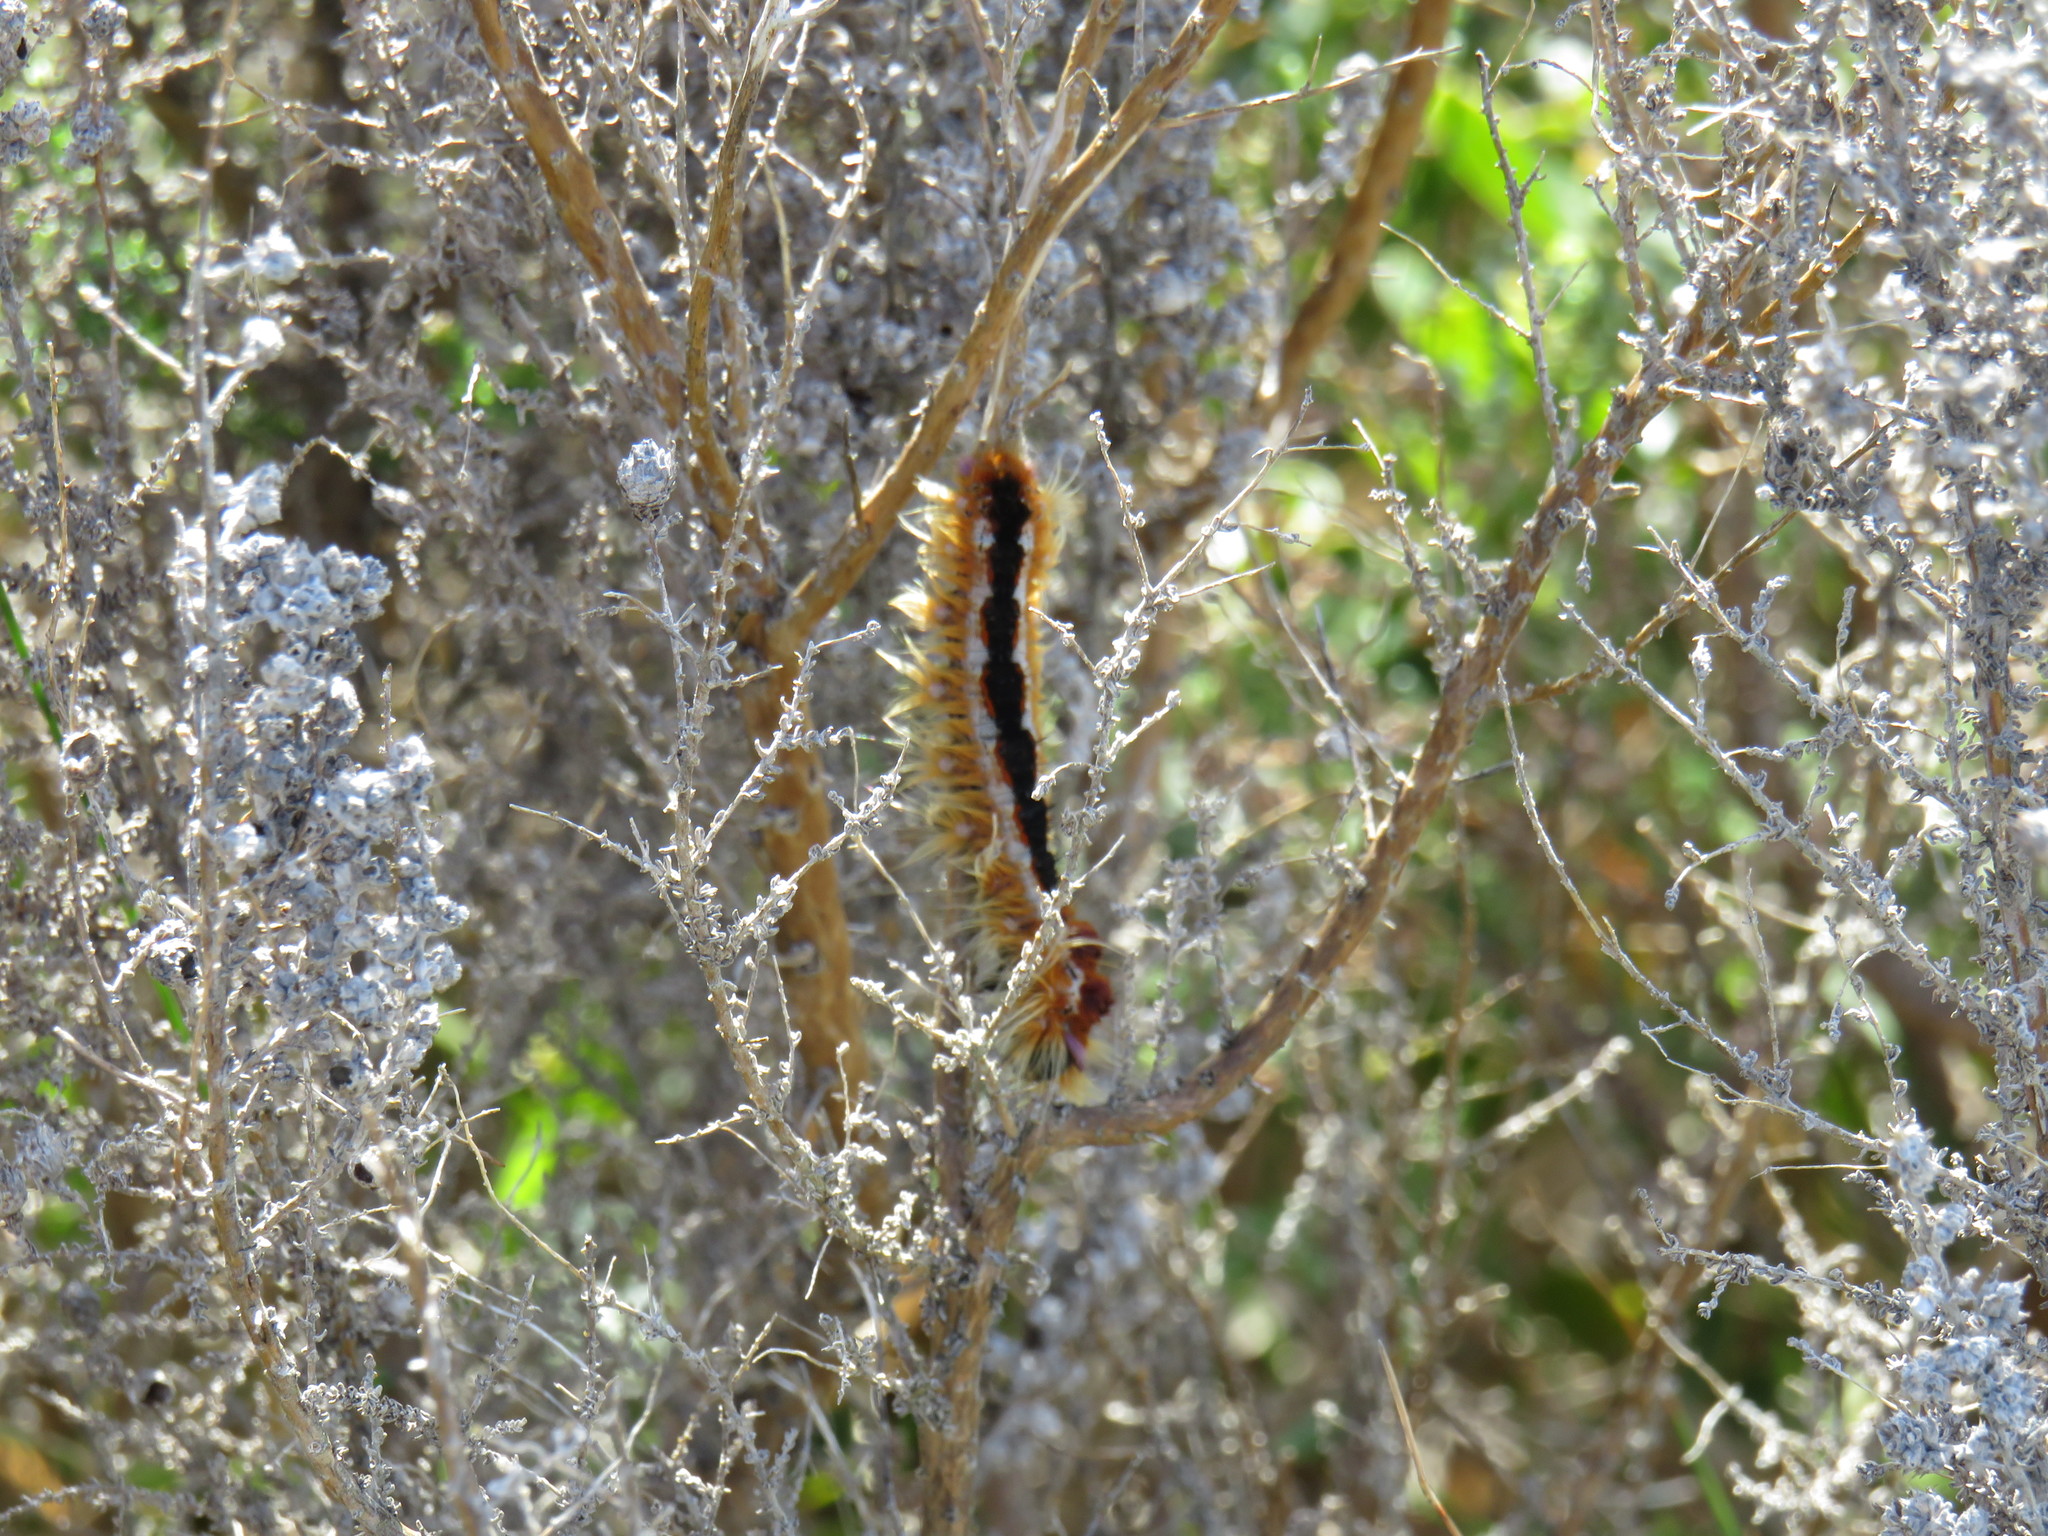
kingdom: Animalia
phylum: Arthropoda
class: Insecta
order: Lepidoptera
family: Lasiocampidae
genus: Eutricha
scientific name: Eutricha capensis
